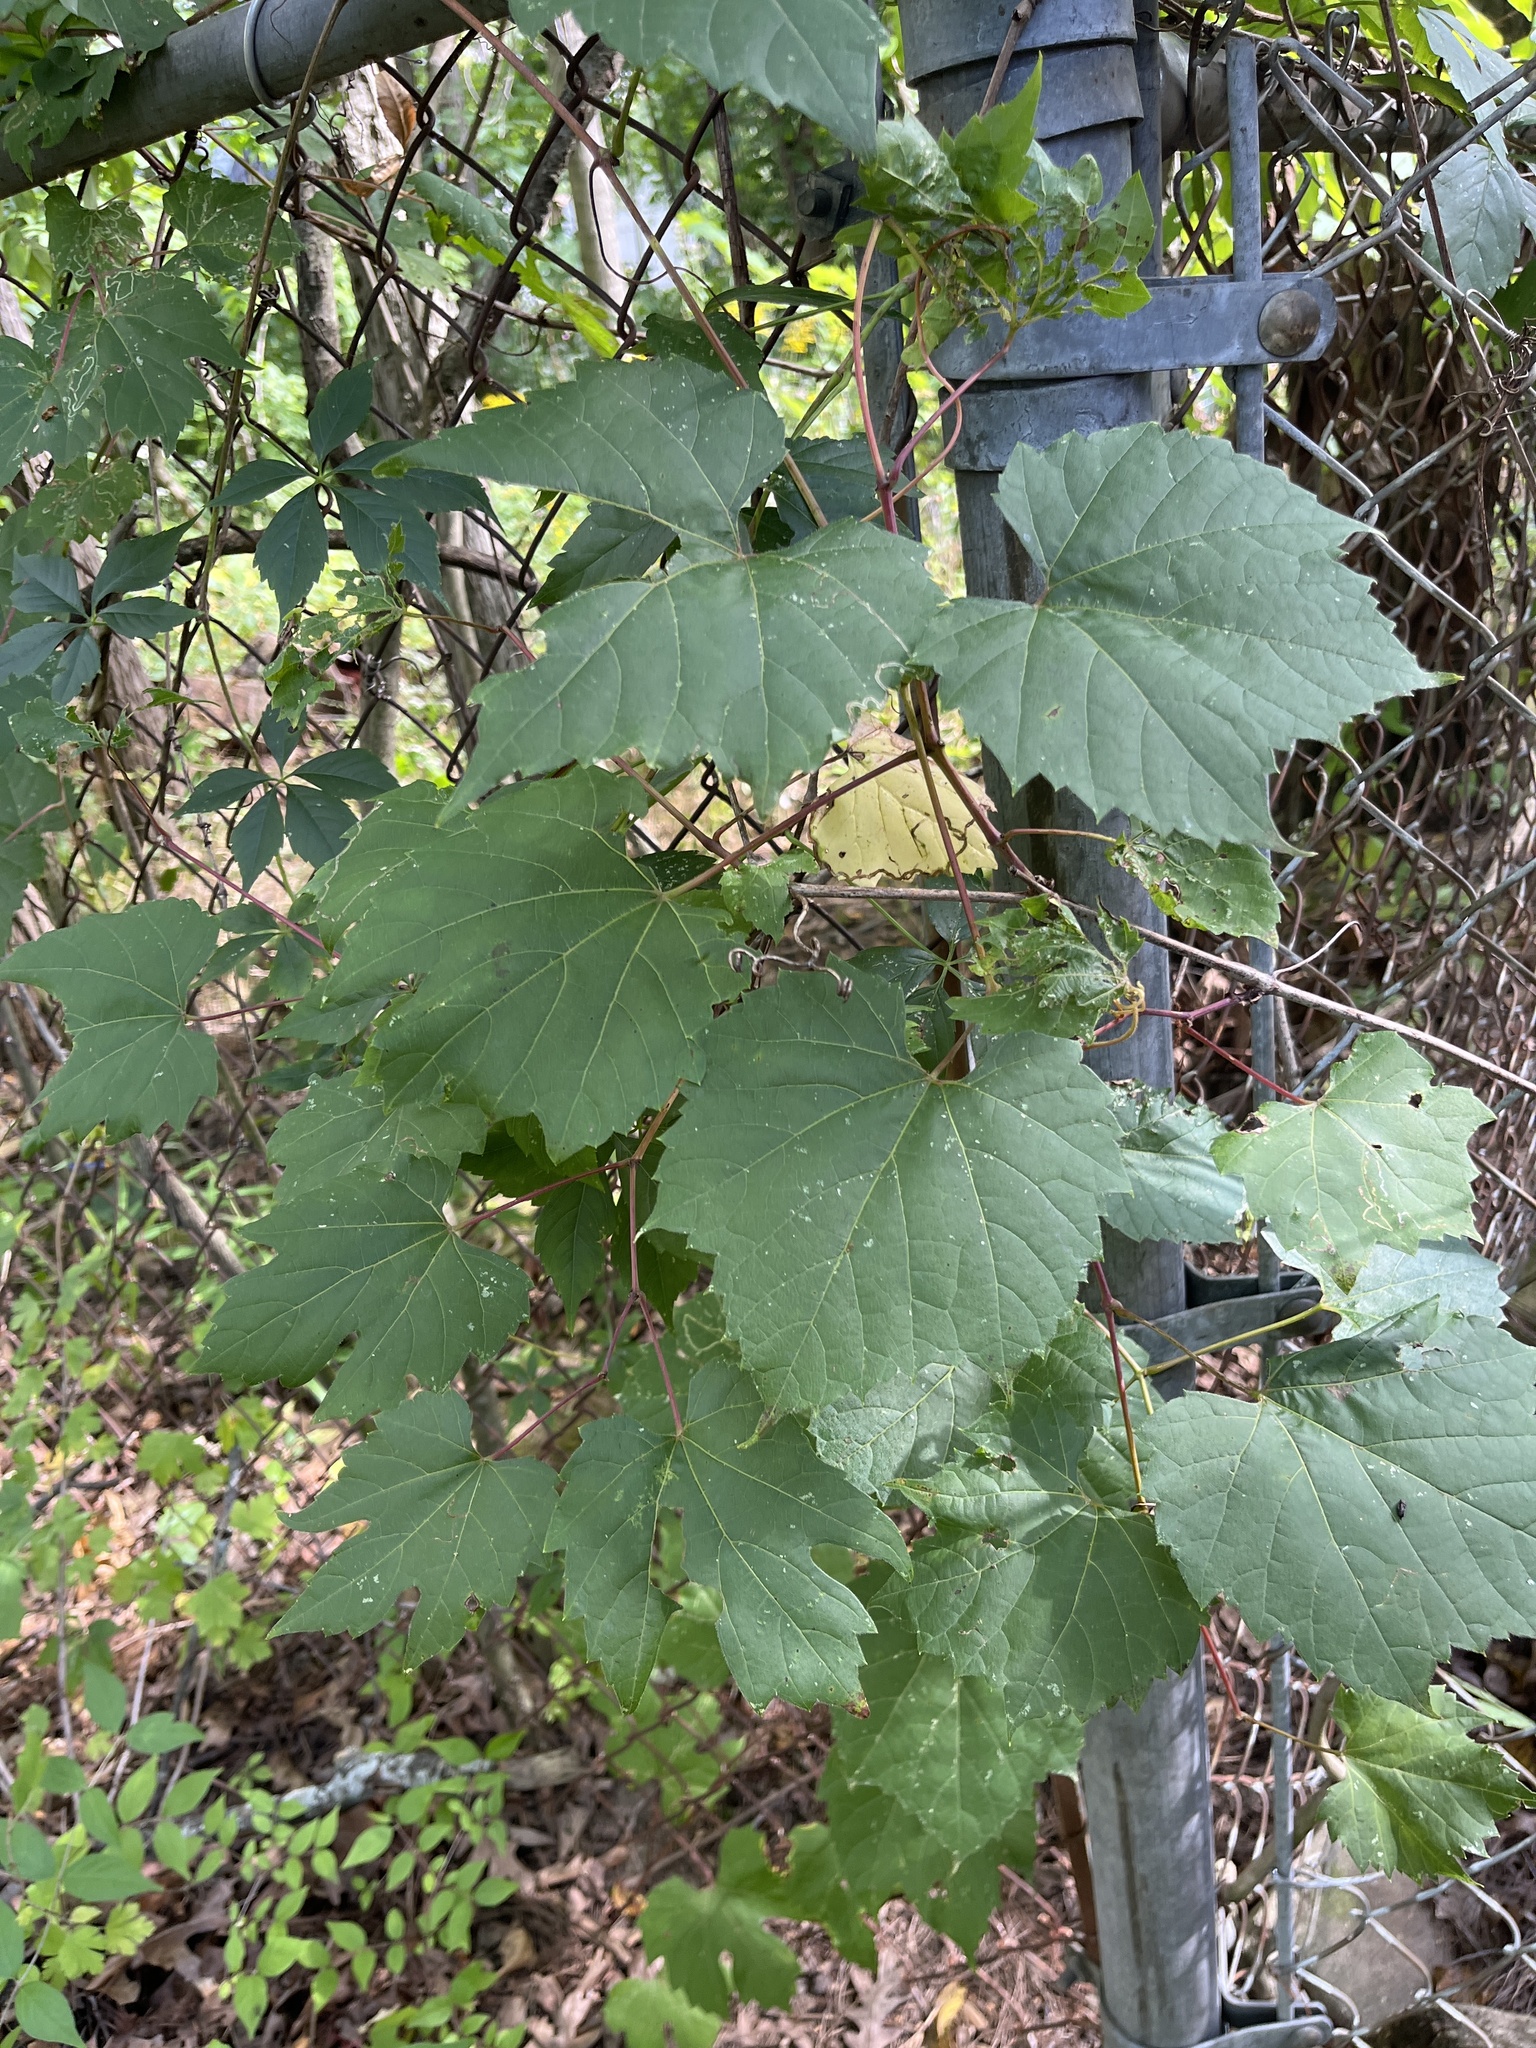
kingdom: Plantae
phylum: Tracheophyta
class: Magnoliopsida
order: Vitales
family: Vitaceae
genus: Vitis
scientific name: Vitis riparia
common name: Frost grape
